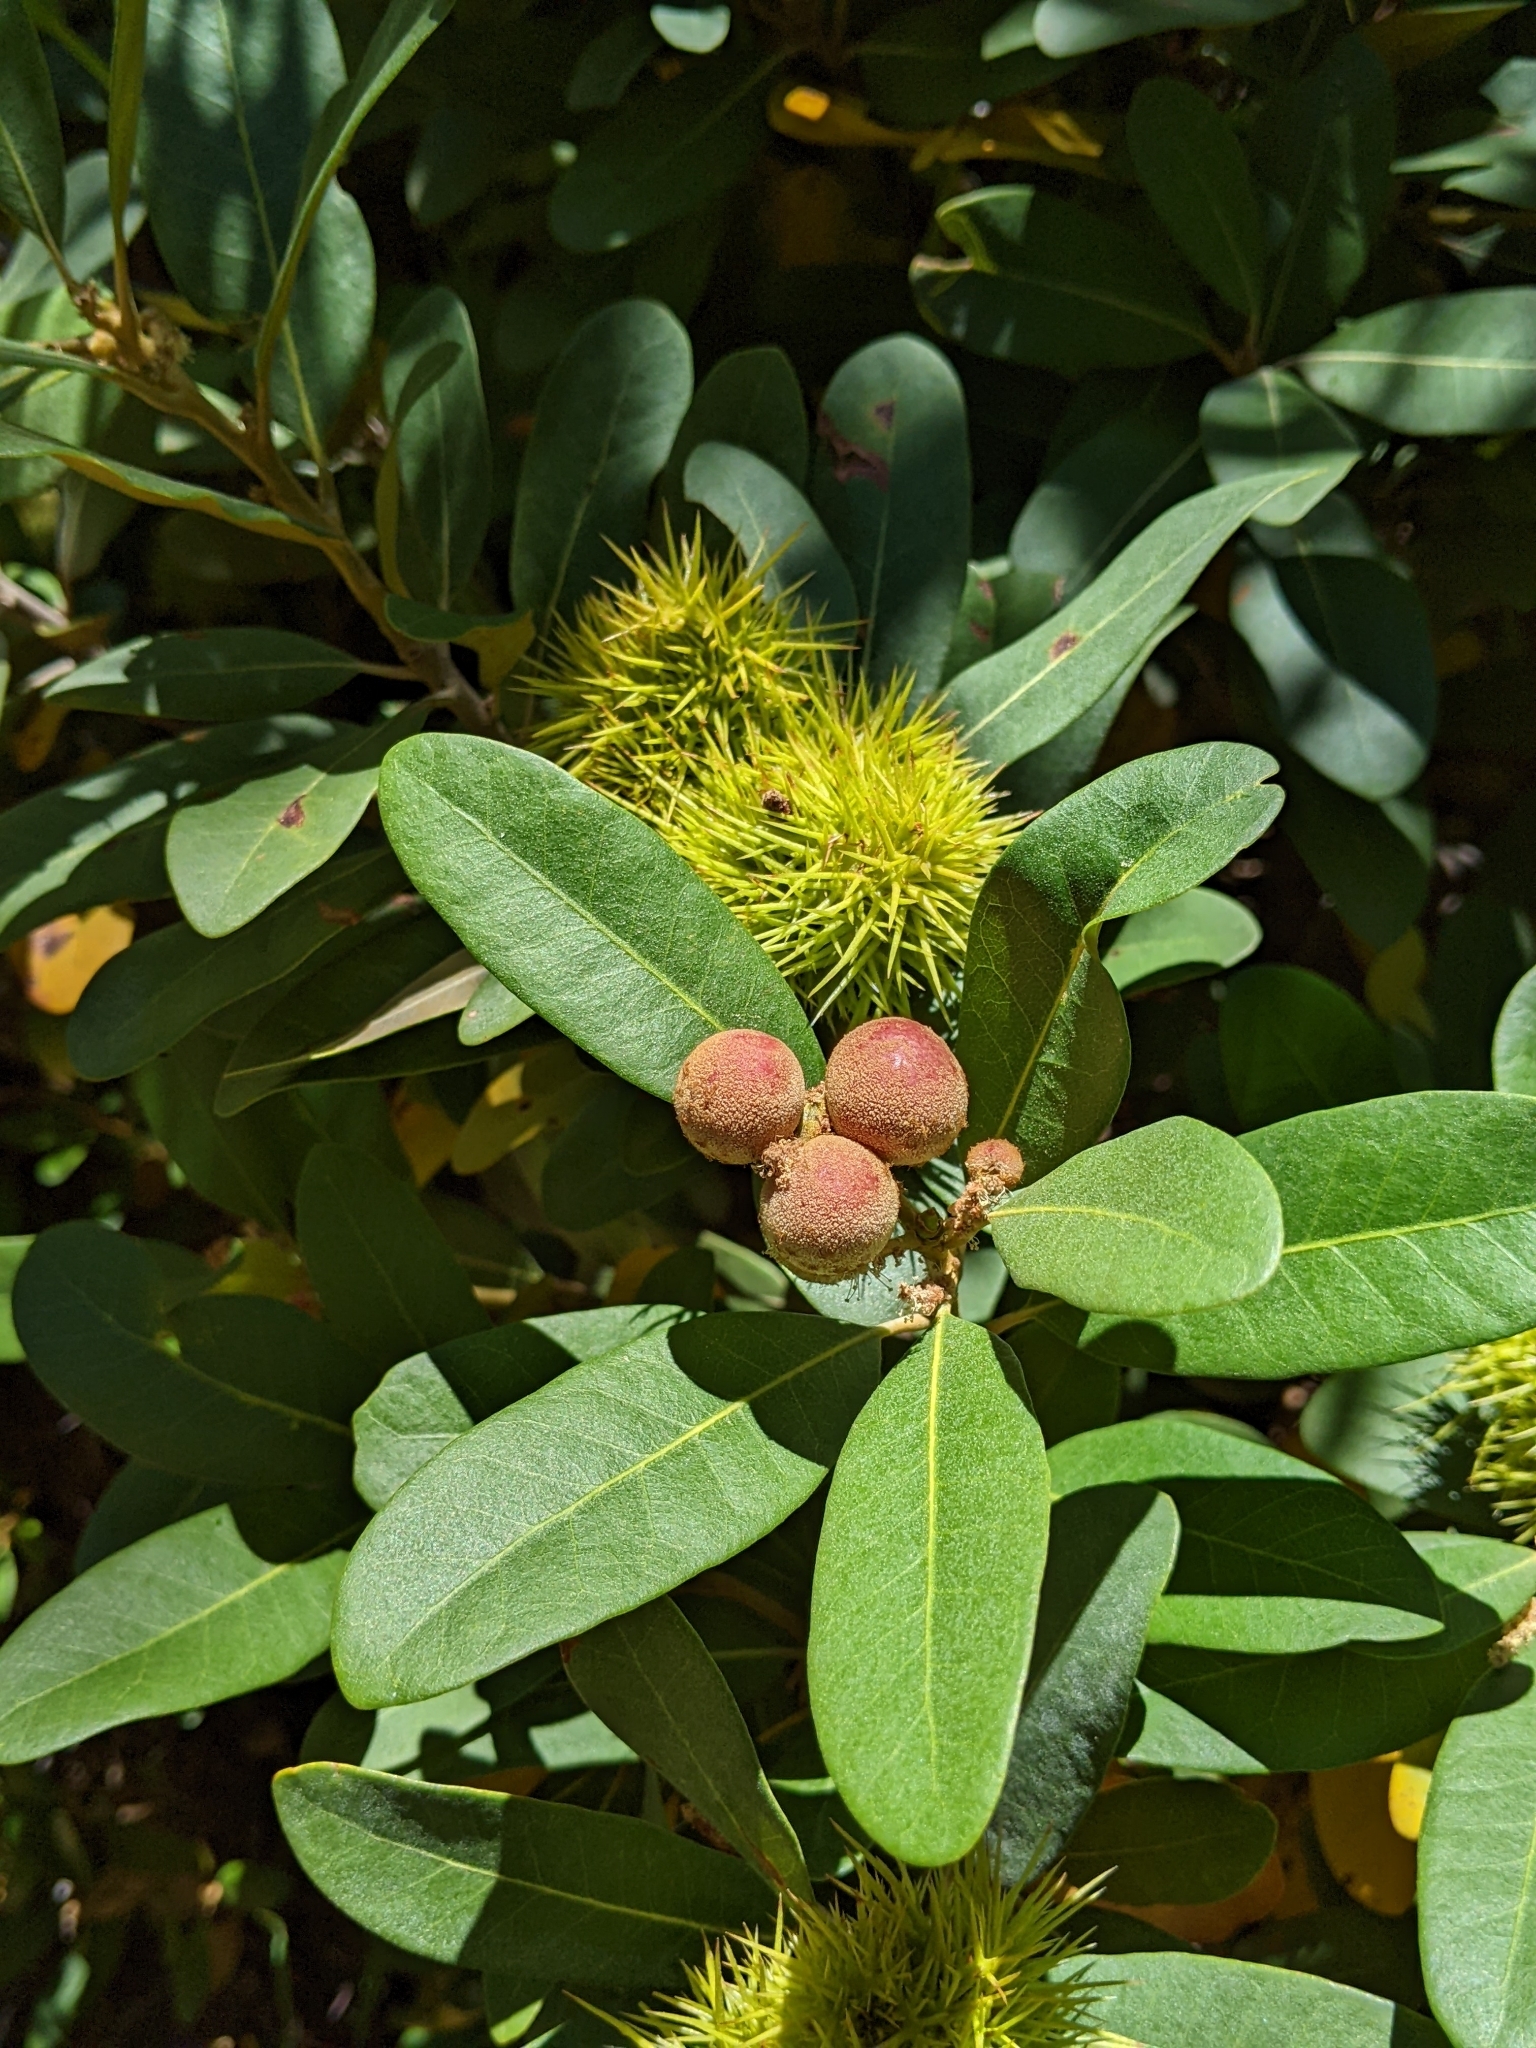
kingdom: Animalia
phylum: Arthropoda
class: Insecta
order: Hymenoptera
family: Cynipidae
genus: Synergus
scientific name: Synergus castanopsidis
